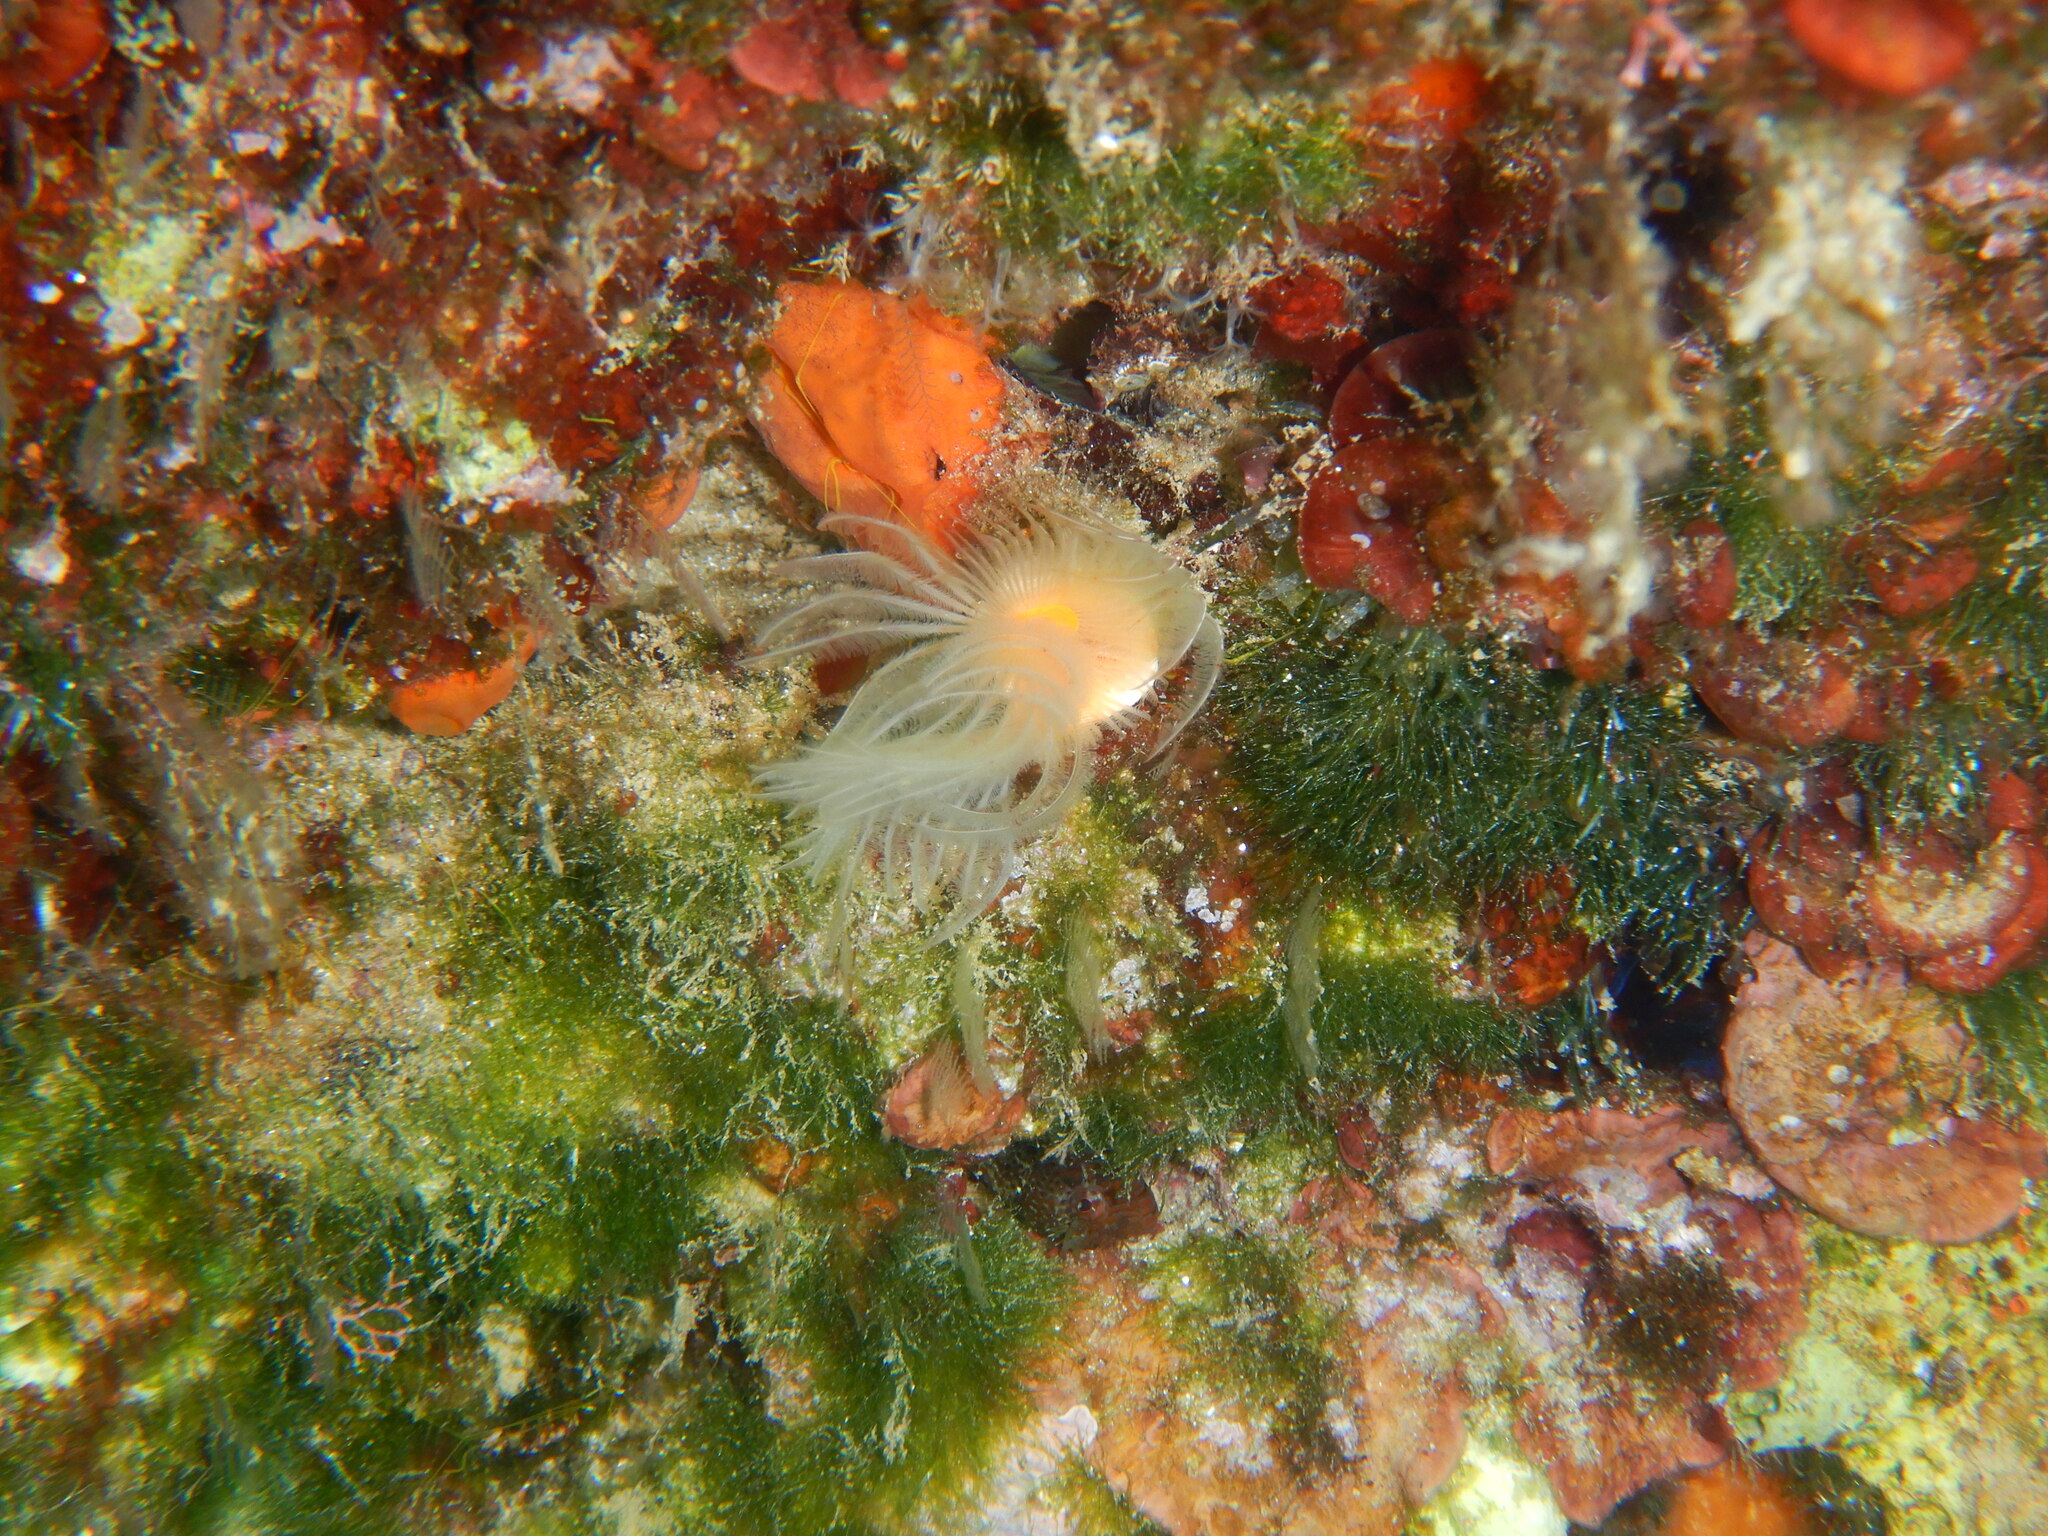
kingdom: Animalia
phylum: Annelida
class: Polychaeta
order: Sabellida
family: Serpulidae
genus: Protula
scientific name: Protula tubularia
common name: Red-spotted horseshoe
